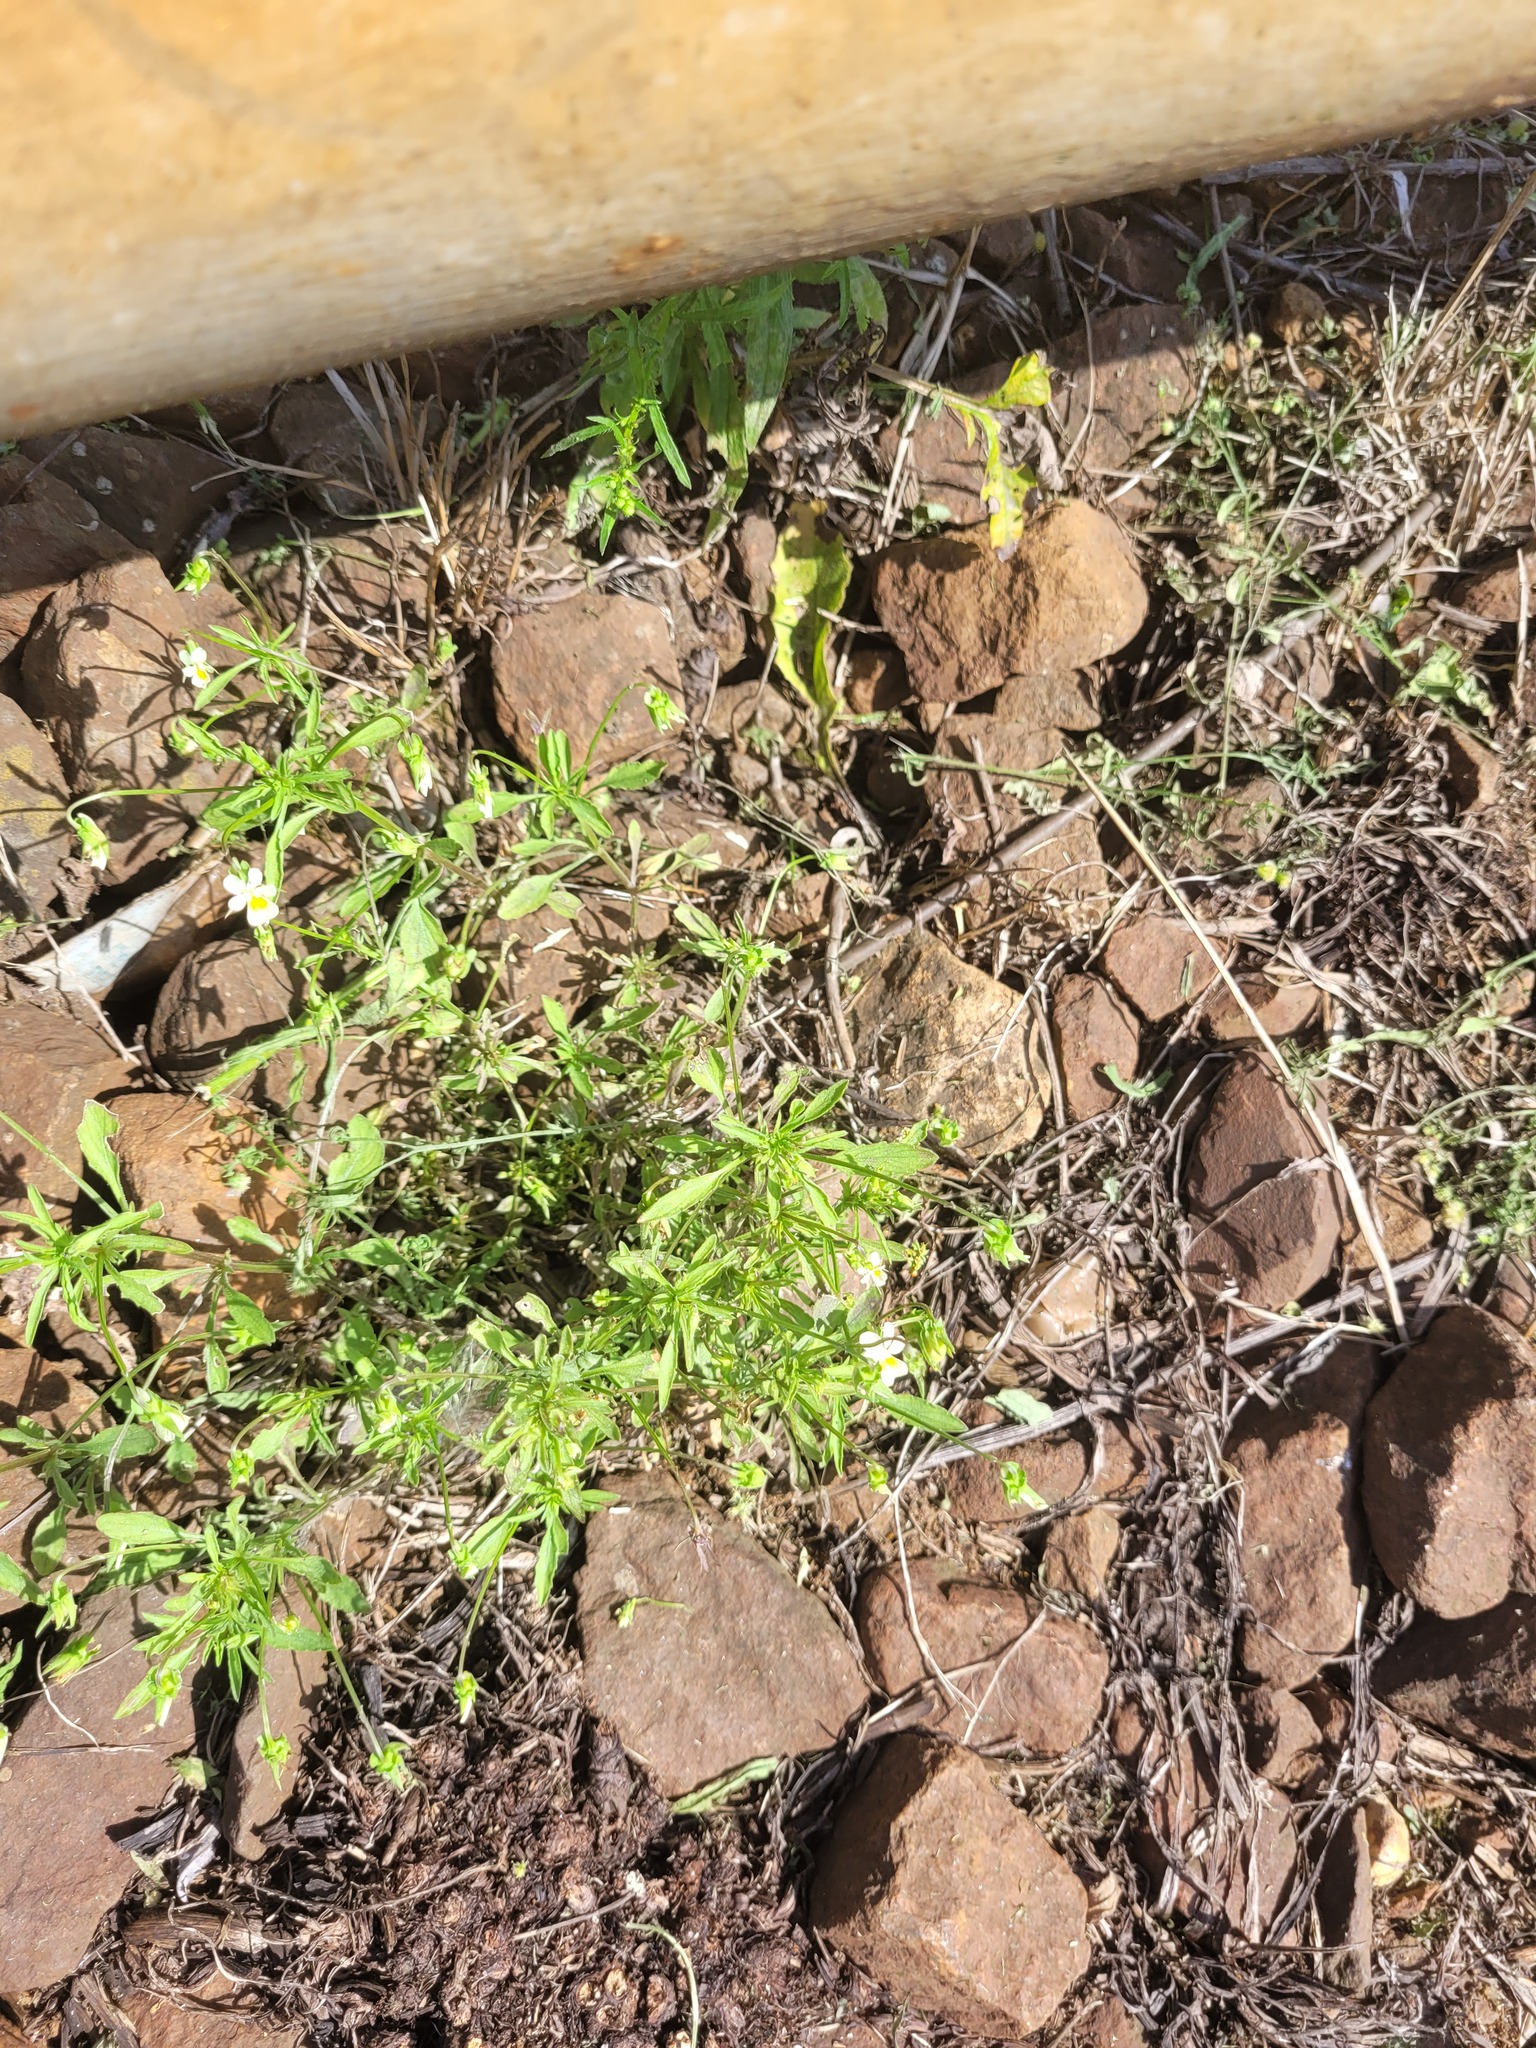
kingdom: Plantae
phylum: Tracheophyta
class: Magnoliopsida
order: Malpighiales
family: Violaceae
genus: Viola
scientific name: Viola arvensis
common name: Field pansy
